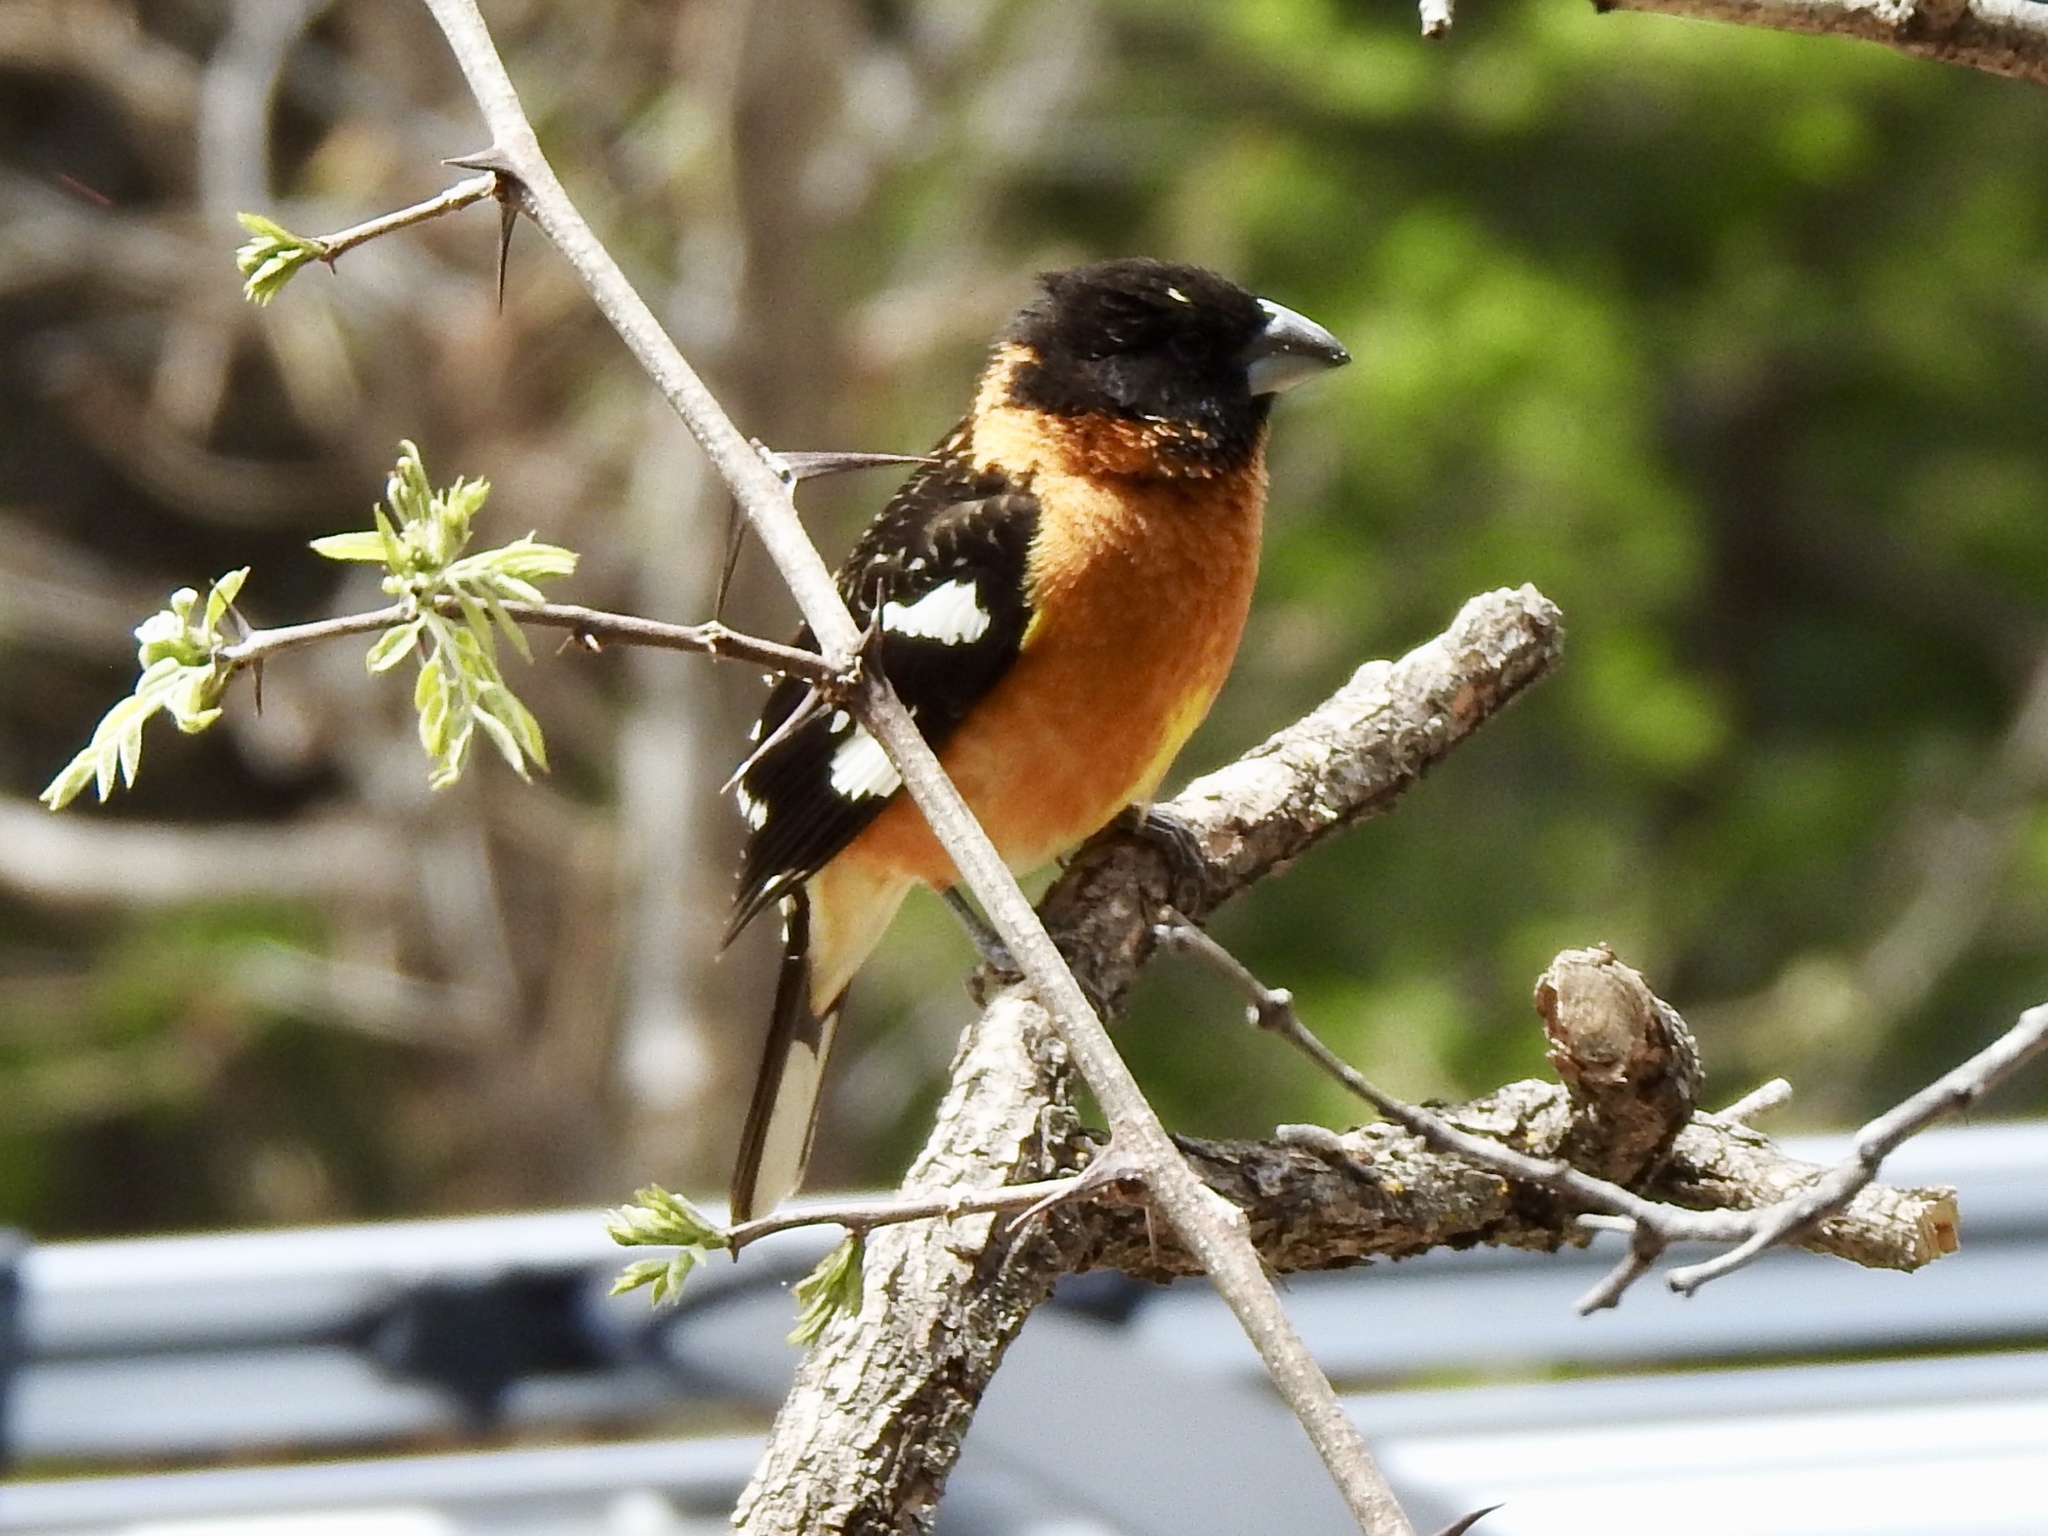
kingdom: Animalia
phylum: Chordata
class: Aves
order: Passeriformes
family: Cardinalidae
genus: Pheucticus
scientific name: Pheucticus melanocephalus
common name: Black-headed grosbeak
